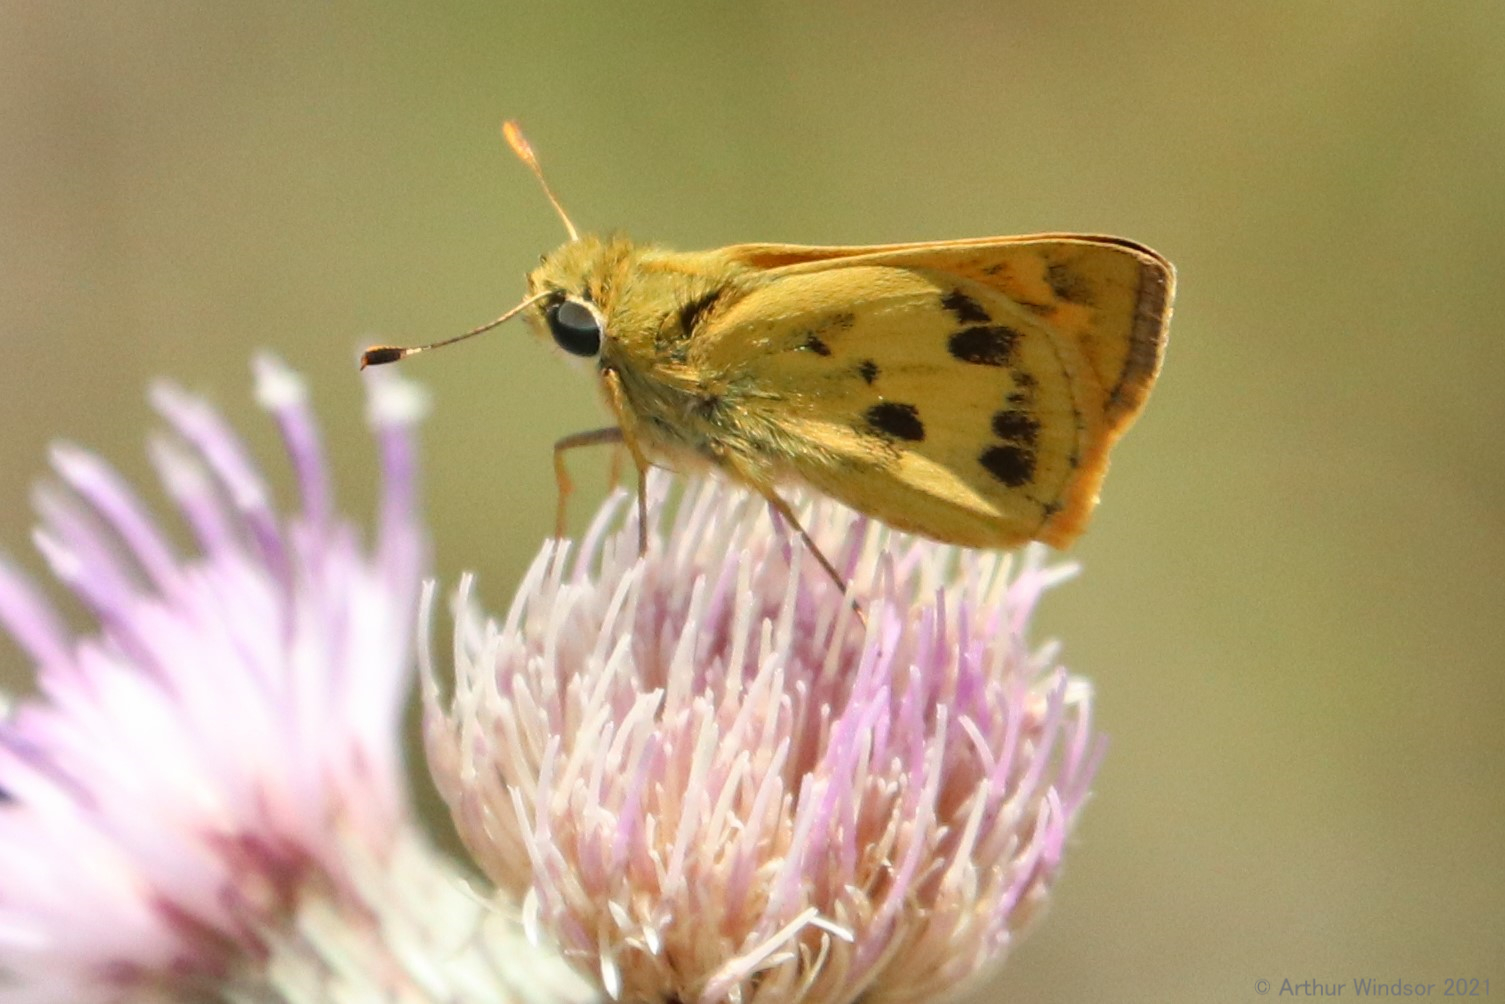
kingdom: Animalia
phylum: Arthropoda
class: Insecta
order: Lepidoptera
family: Hesperiidae
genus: Polites
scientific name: Polites vibex
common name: Whirlabout
